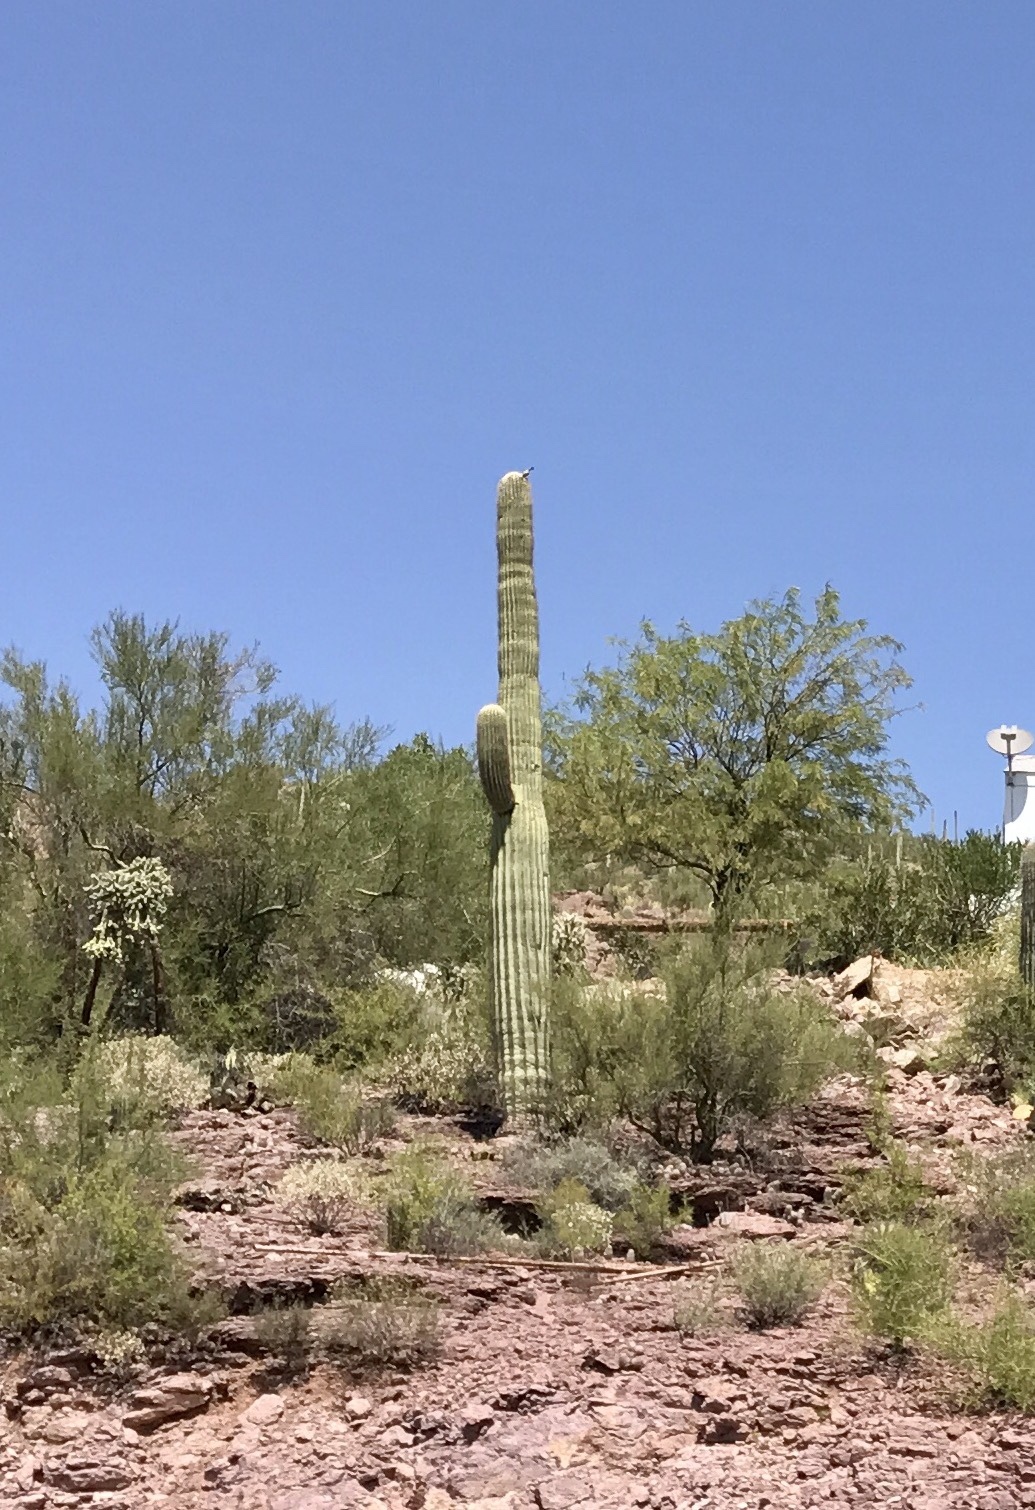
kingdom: Plantae
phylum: Tracheophyta
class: Magnoliopsida
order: Caryophyllales
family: Cactaceae
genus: Carnegiea
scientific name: Carnegiea gigantea
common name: Saguaro
